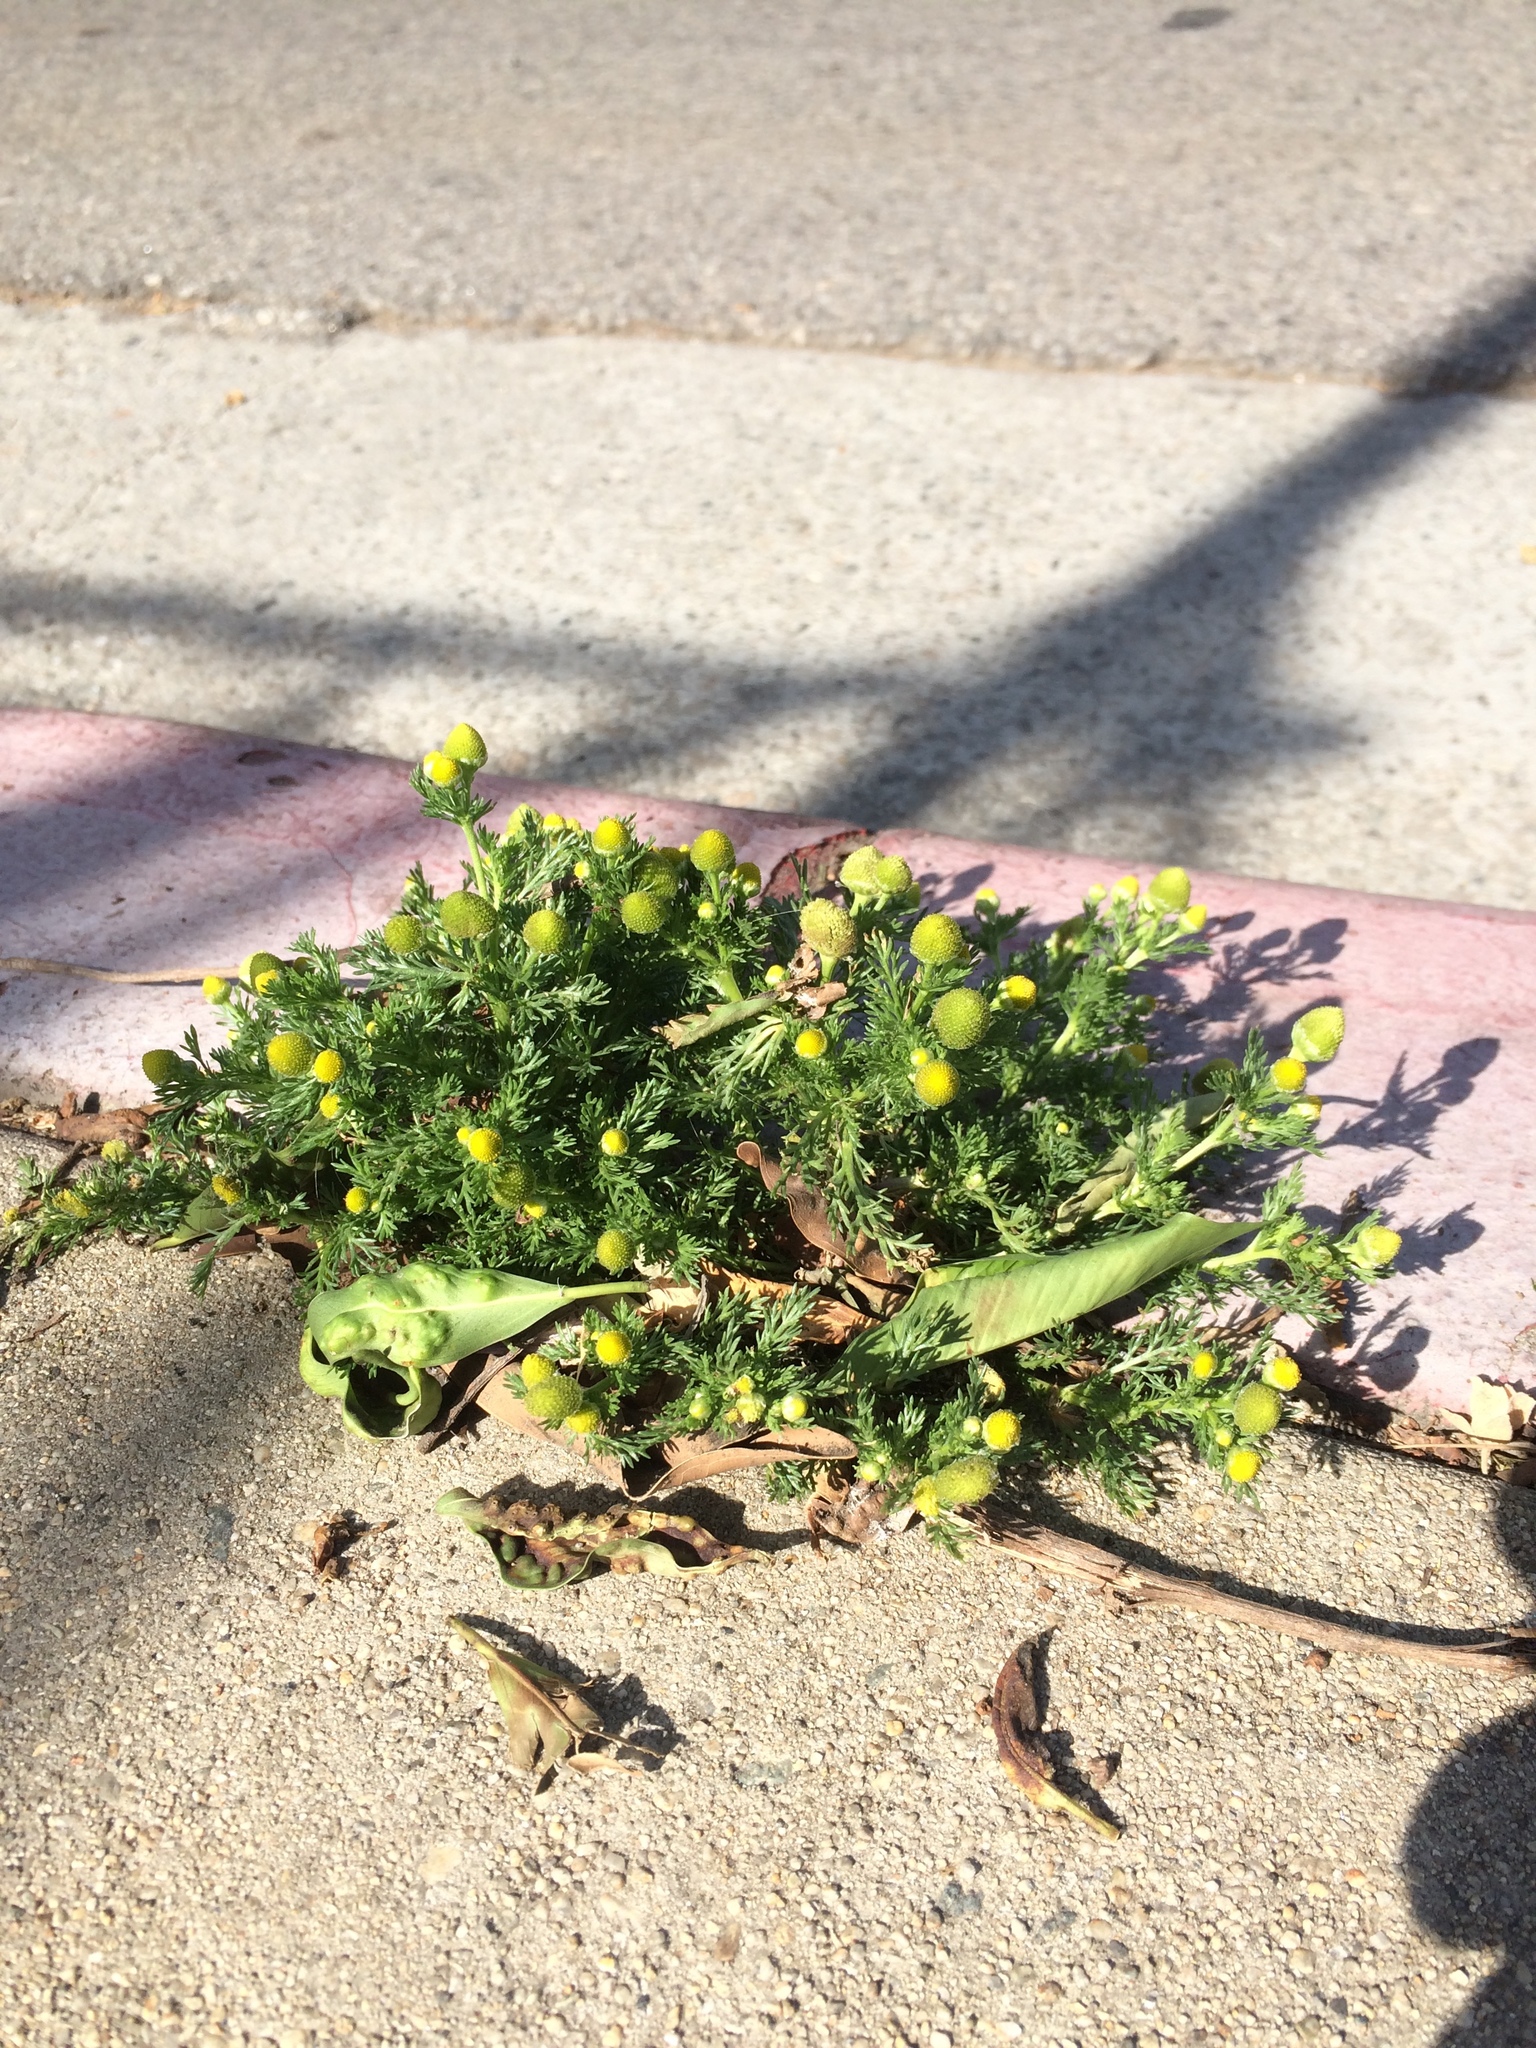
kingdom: Plantae
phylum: Tracheophyta
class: Magnoliopsida
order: Asterales
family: Asteraceae
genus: Matricaria
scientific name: Matricaria discoidea
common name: Disc mayweed
